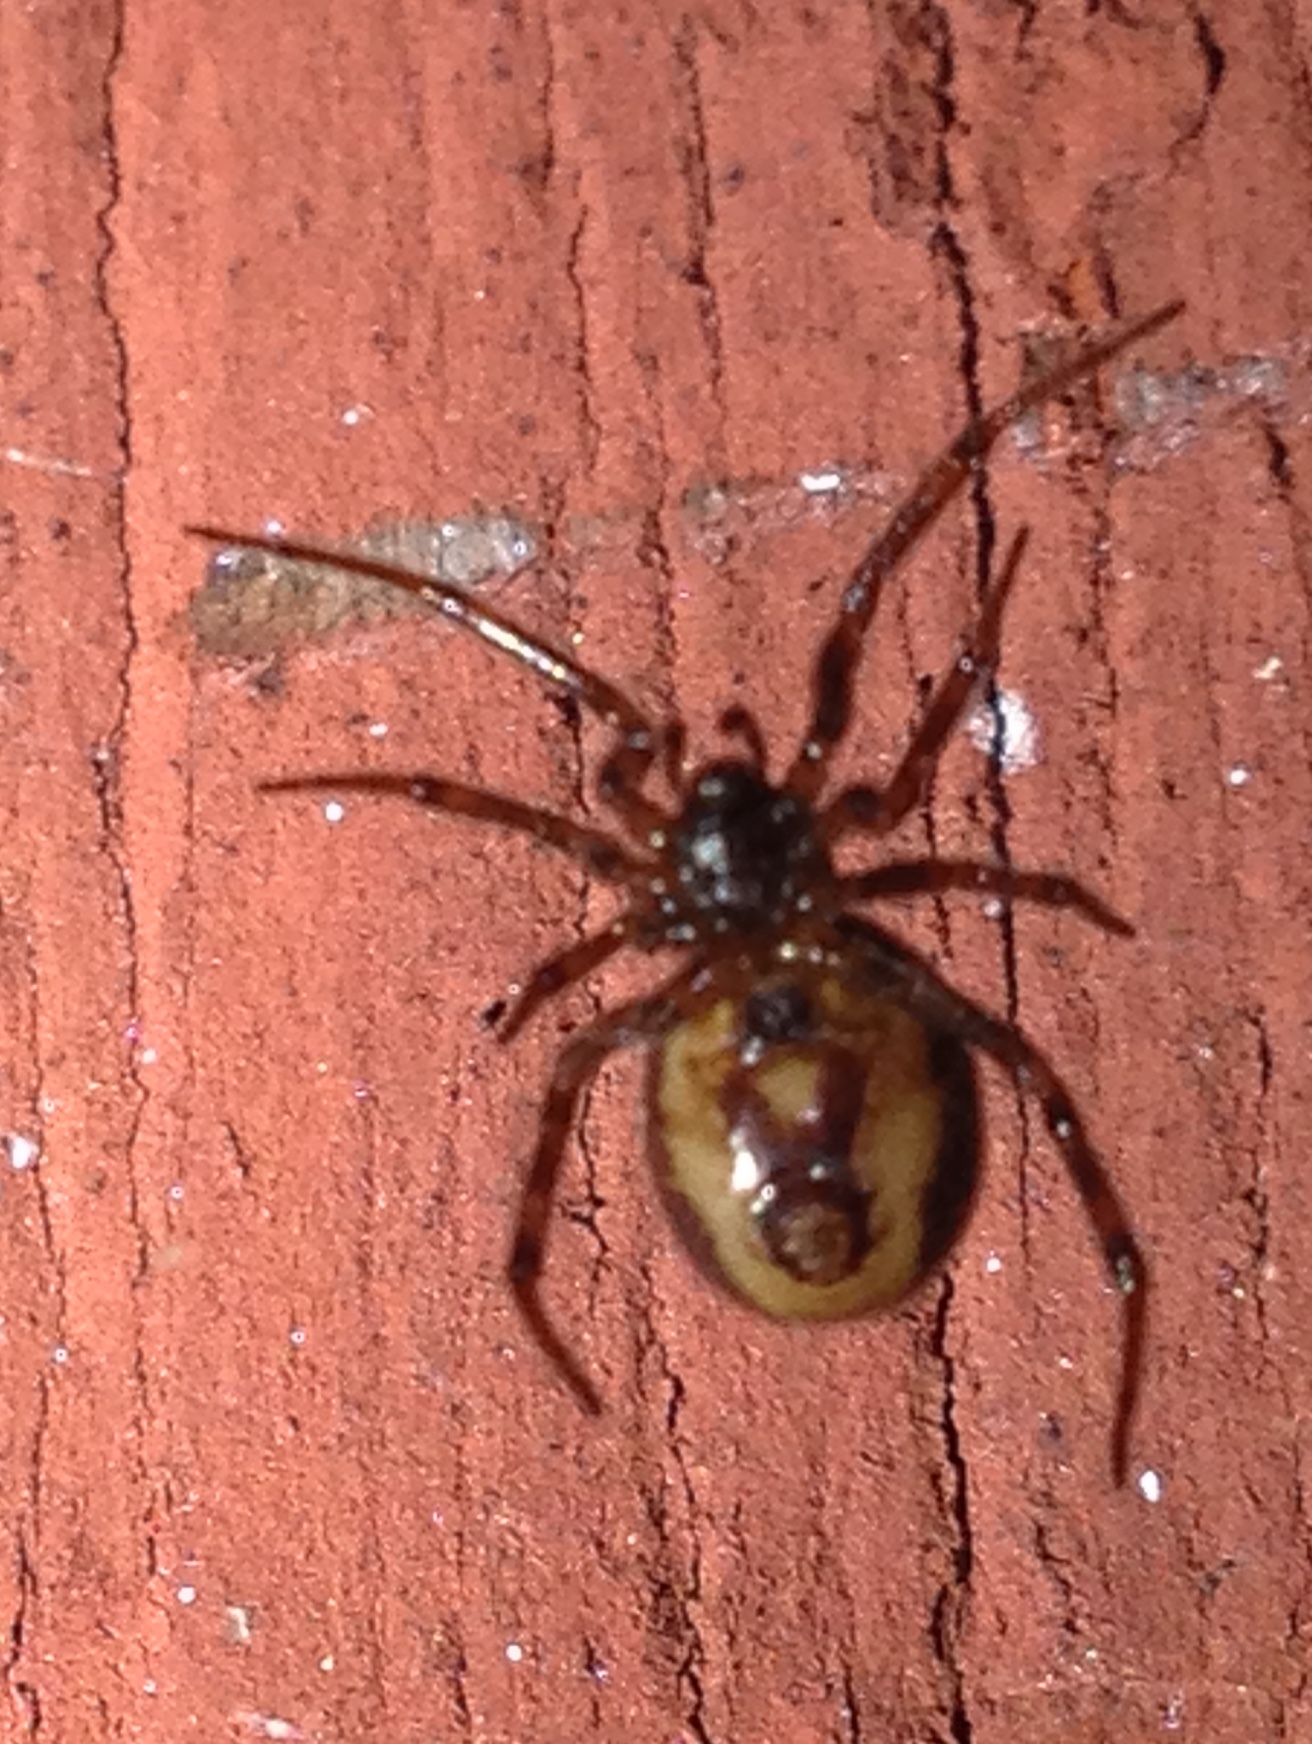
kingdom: Animalia
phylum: Arthropoda
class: Arachnida
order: Araneae
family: Theridiidae
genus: Steatoda
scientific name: Steatoda bipunctata
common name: False widow
